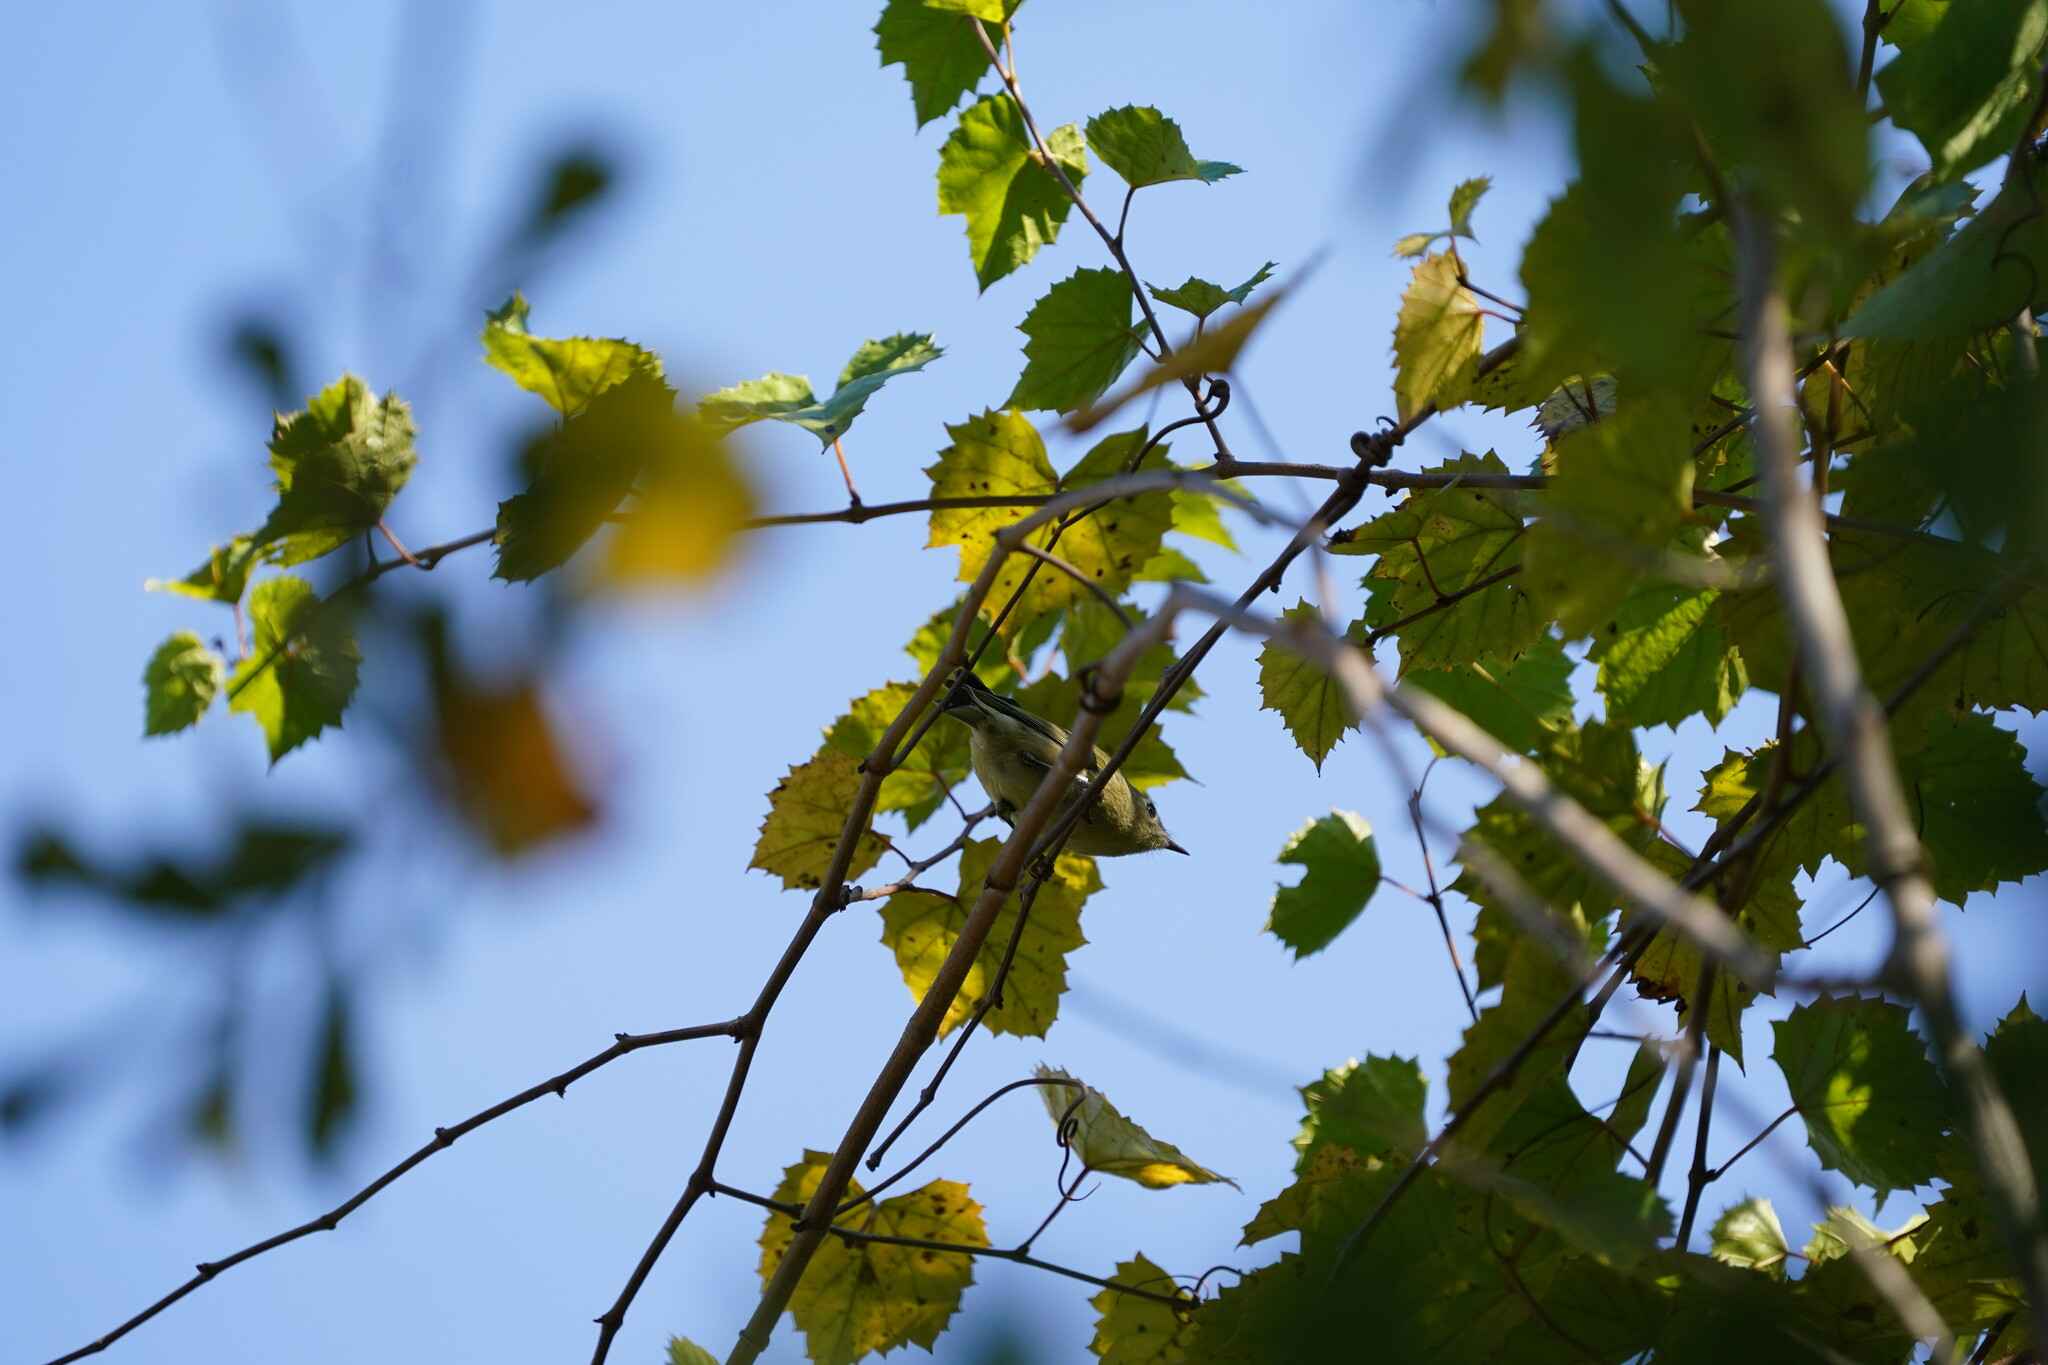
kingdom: Animalia
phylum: Chordata
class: Aves
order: Passeriformes
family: Regulidae
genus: Regulus
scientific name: Regulus calendula
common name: Ruby-crowned kinglet
